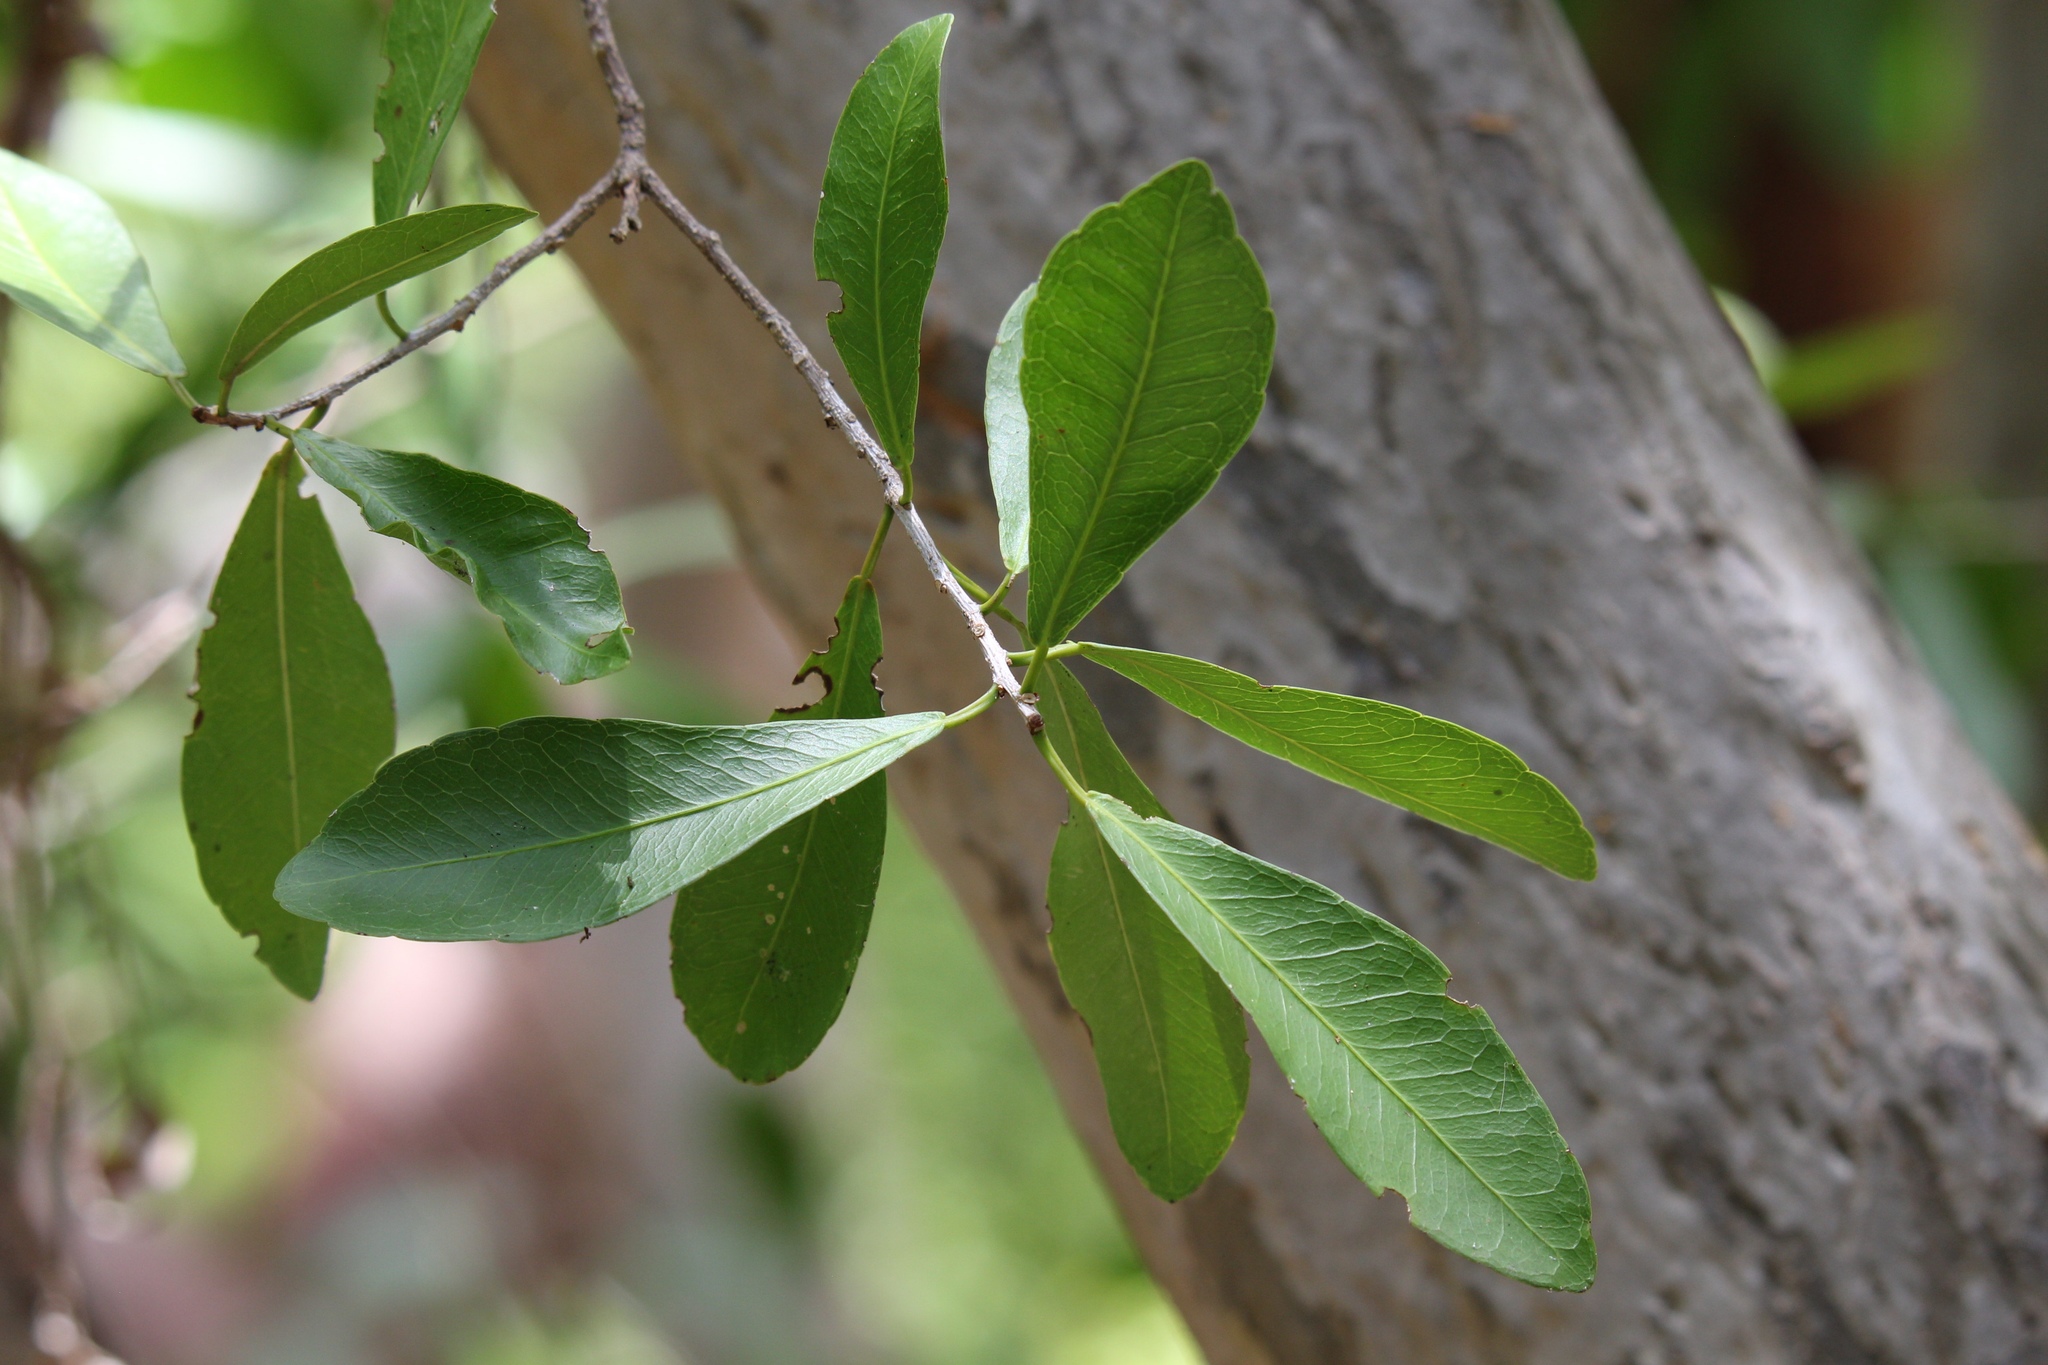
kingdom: Plantae
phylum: Tracheophyta
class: Magnoliopsida
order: Malpighiales
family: Euphorbiaceae
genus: Gymnanthes
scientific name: Gymnanthes lucida
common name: Oysterwood
